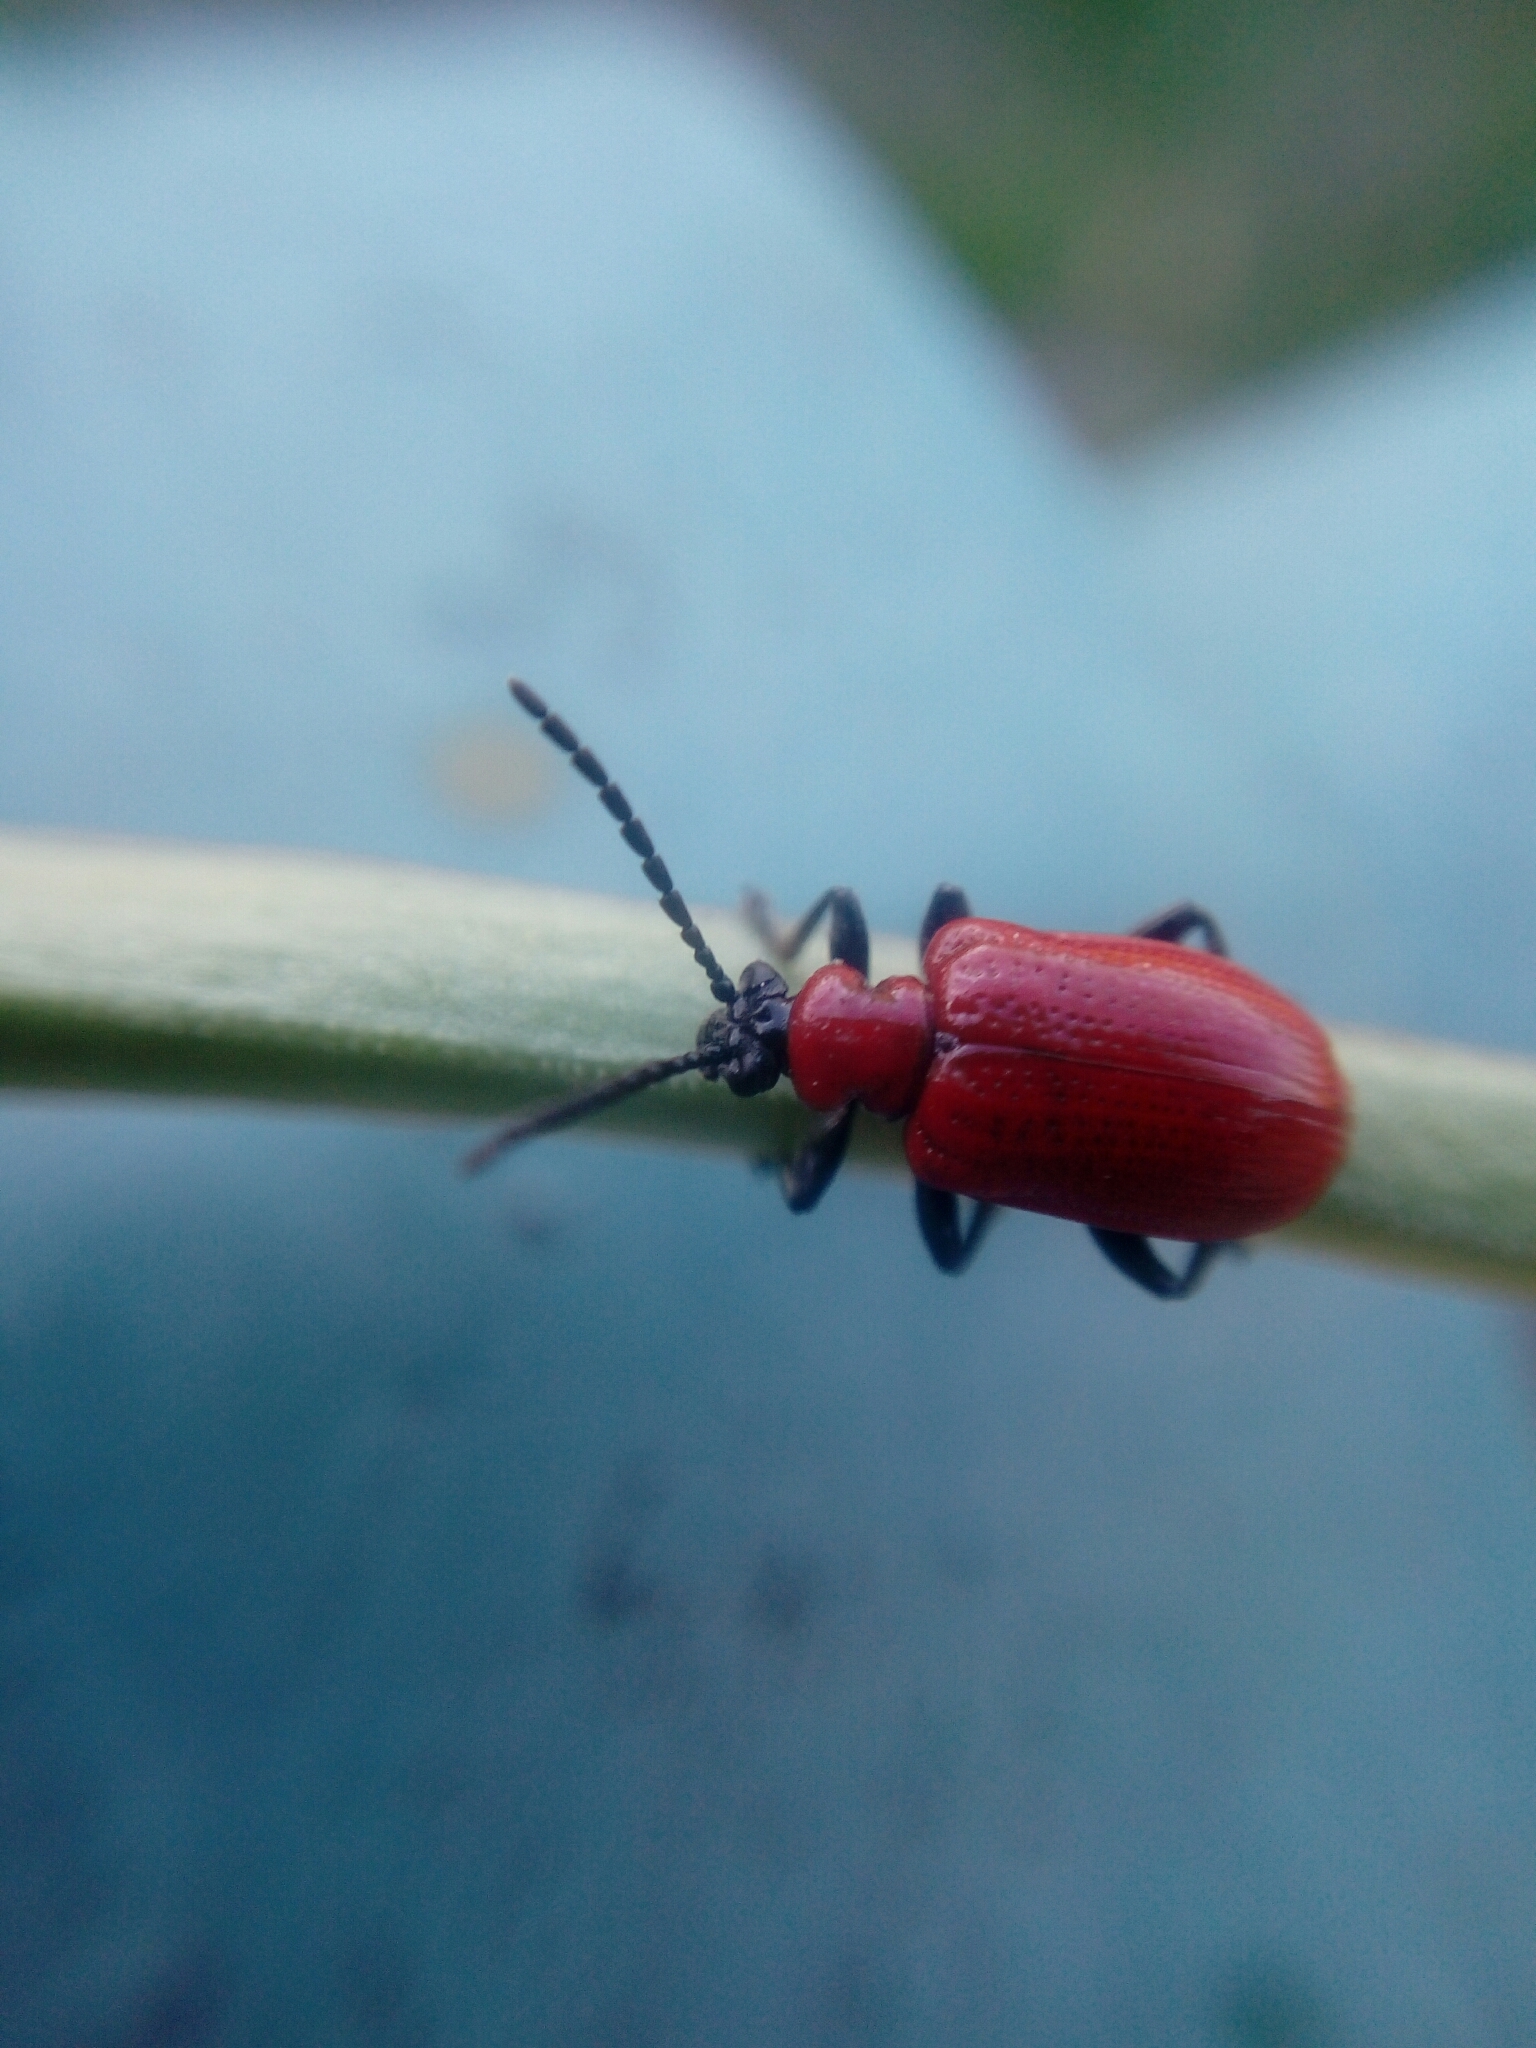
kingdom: Animalia
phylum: Arthropoda
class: Insecta
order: Coleoptera
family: Chrysomelidae
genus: Lilioceris
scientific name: Lilioceris lilii
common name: Lily beetle
